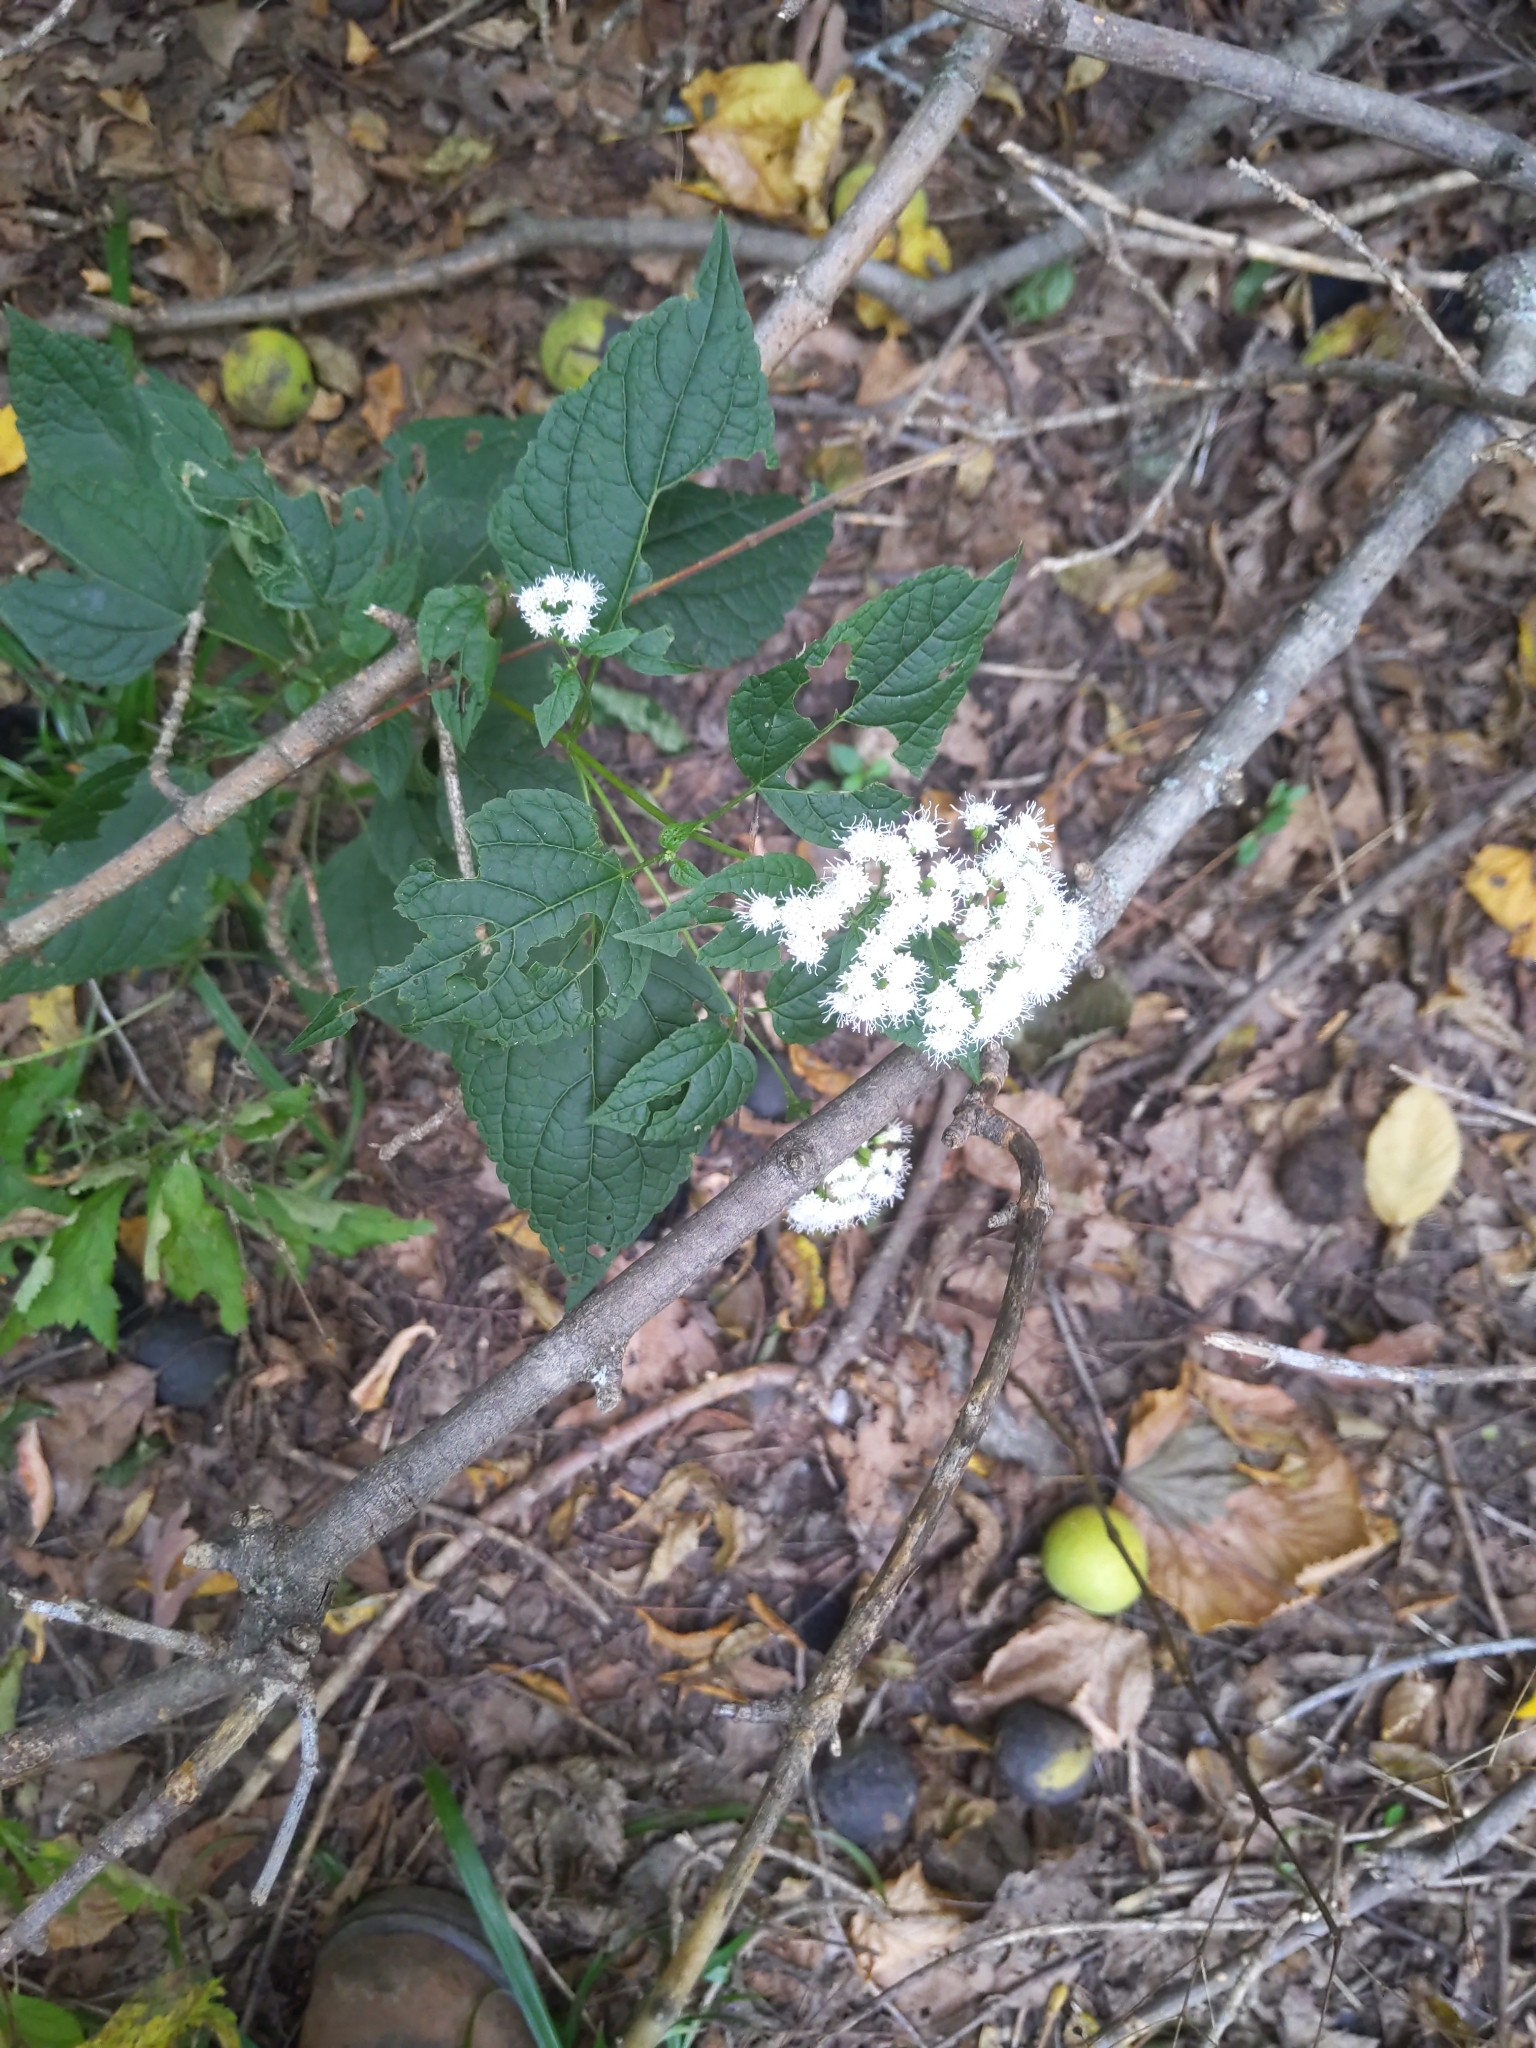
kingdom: Plantae
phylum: Tracheophyta
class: Magnoliopsida
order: Asterales
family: Asteraceae
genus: Ageratina
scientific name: Ageratina altissima
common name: White snakeroot
